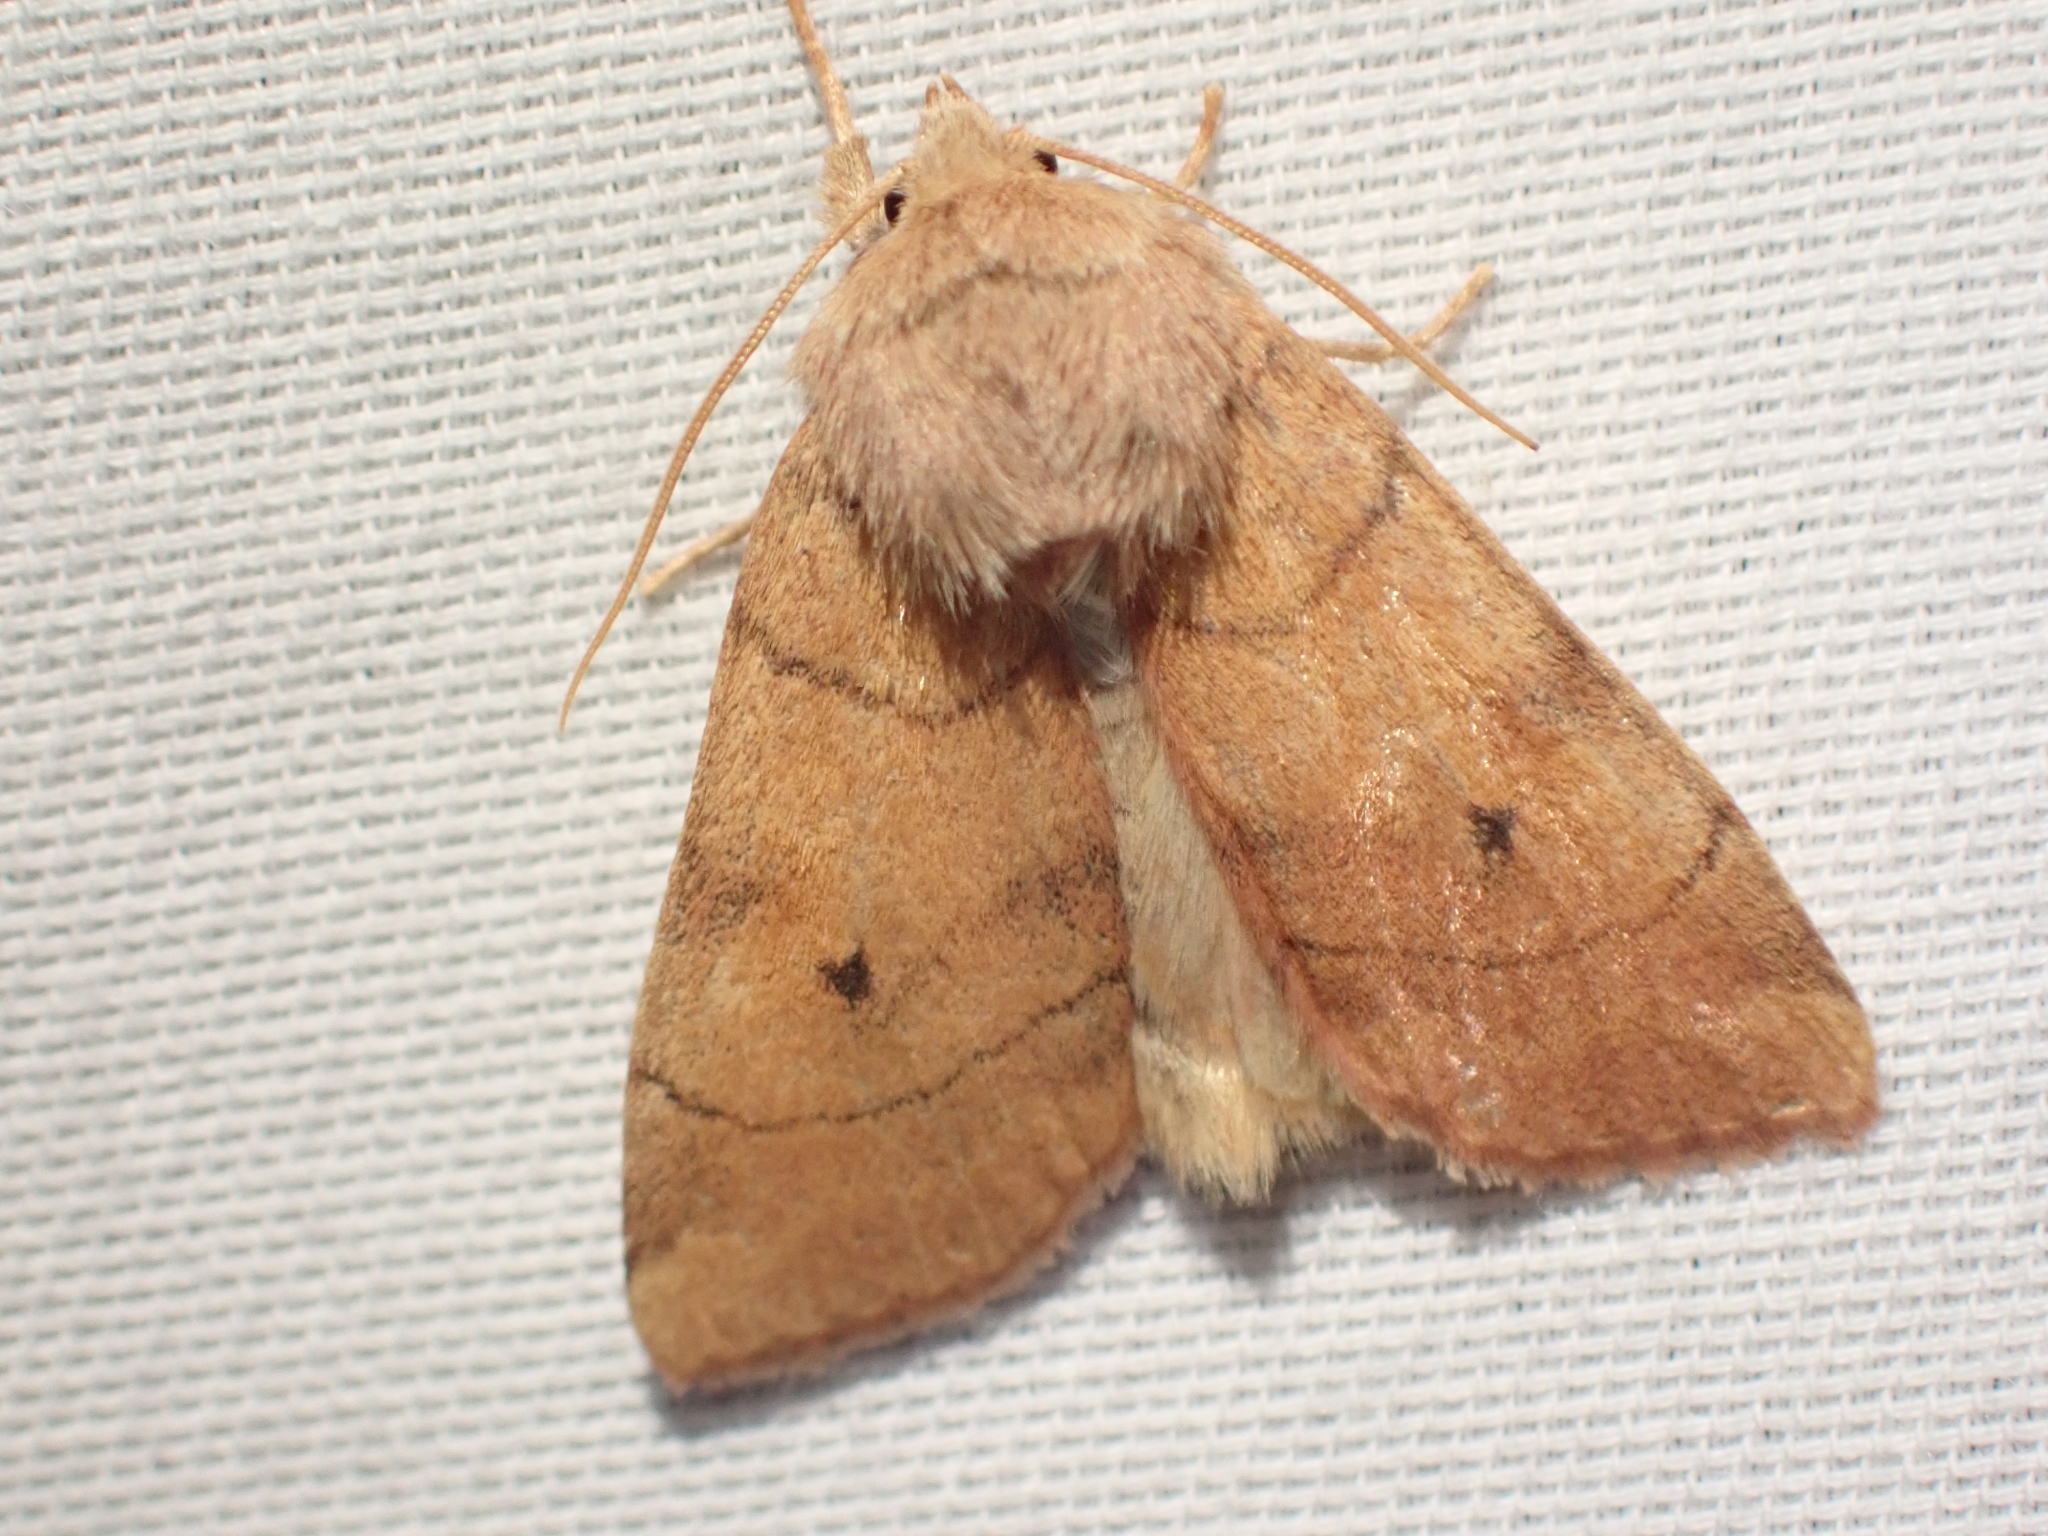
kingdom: Animalia
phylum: Arthropoda
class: Insecta
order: Lepidoptera
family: Noctuidae
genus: Enargia
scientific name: Enargia infumata
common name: Smoked sallow
